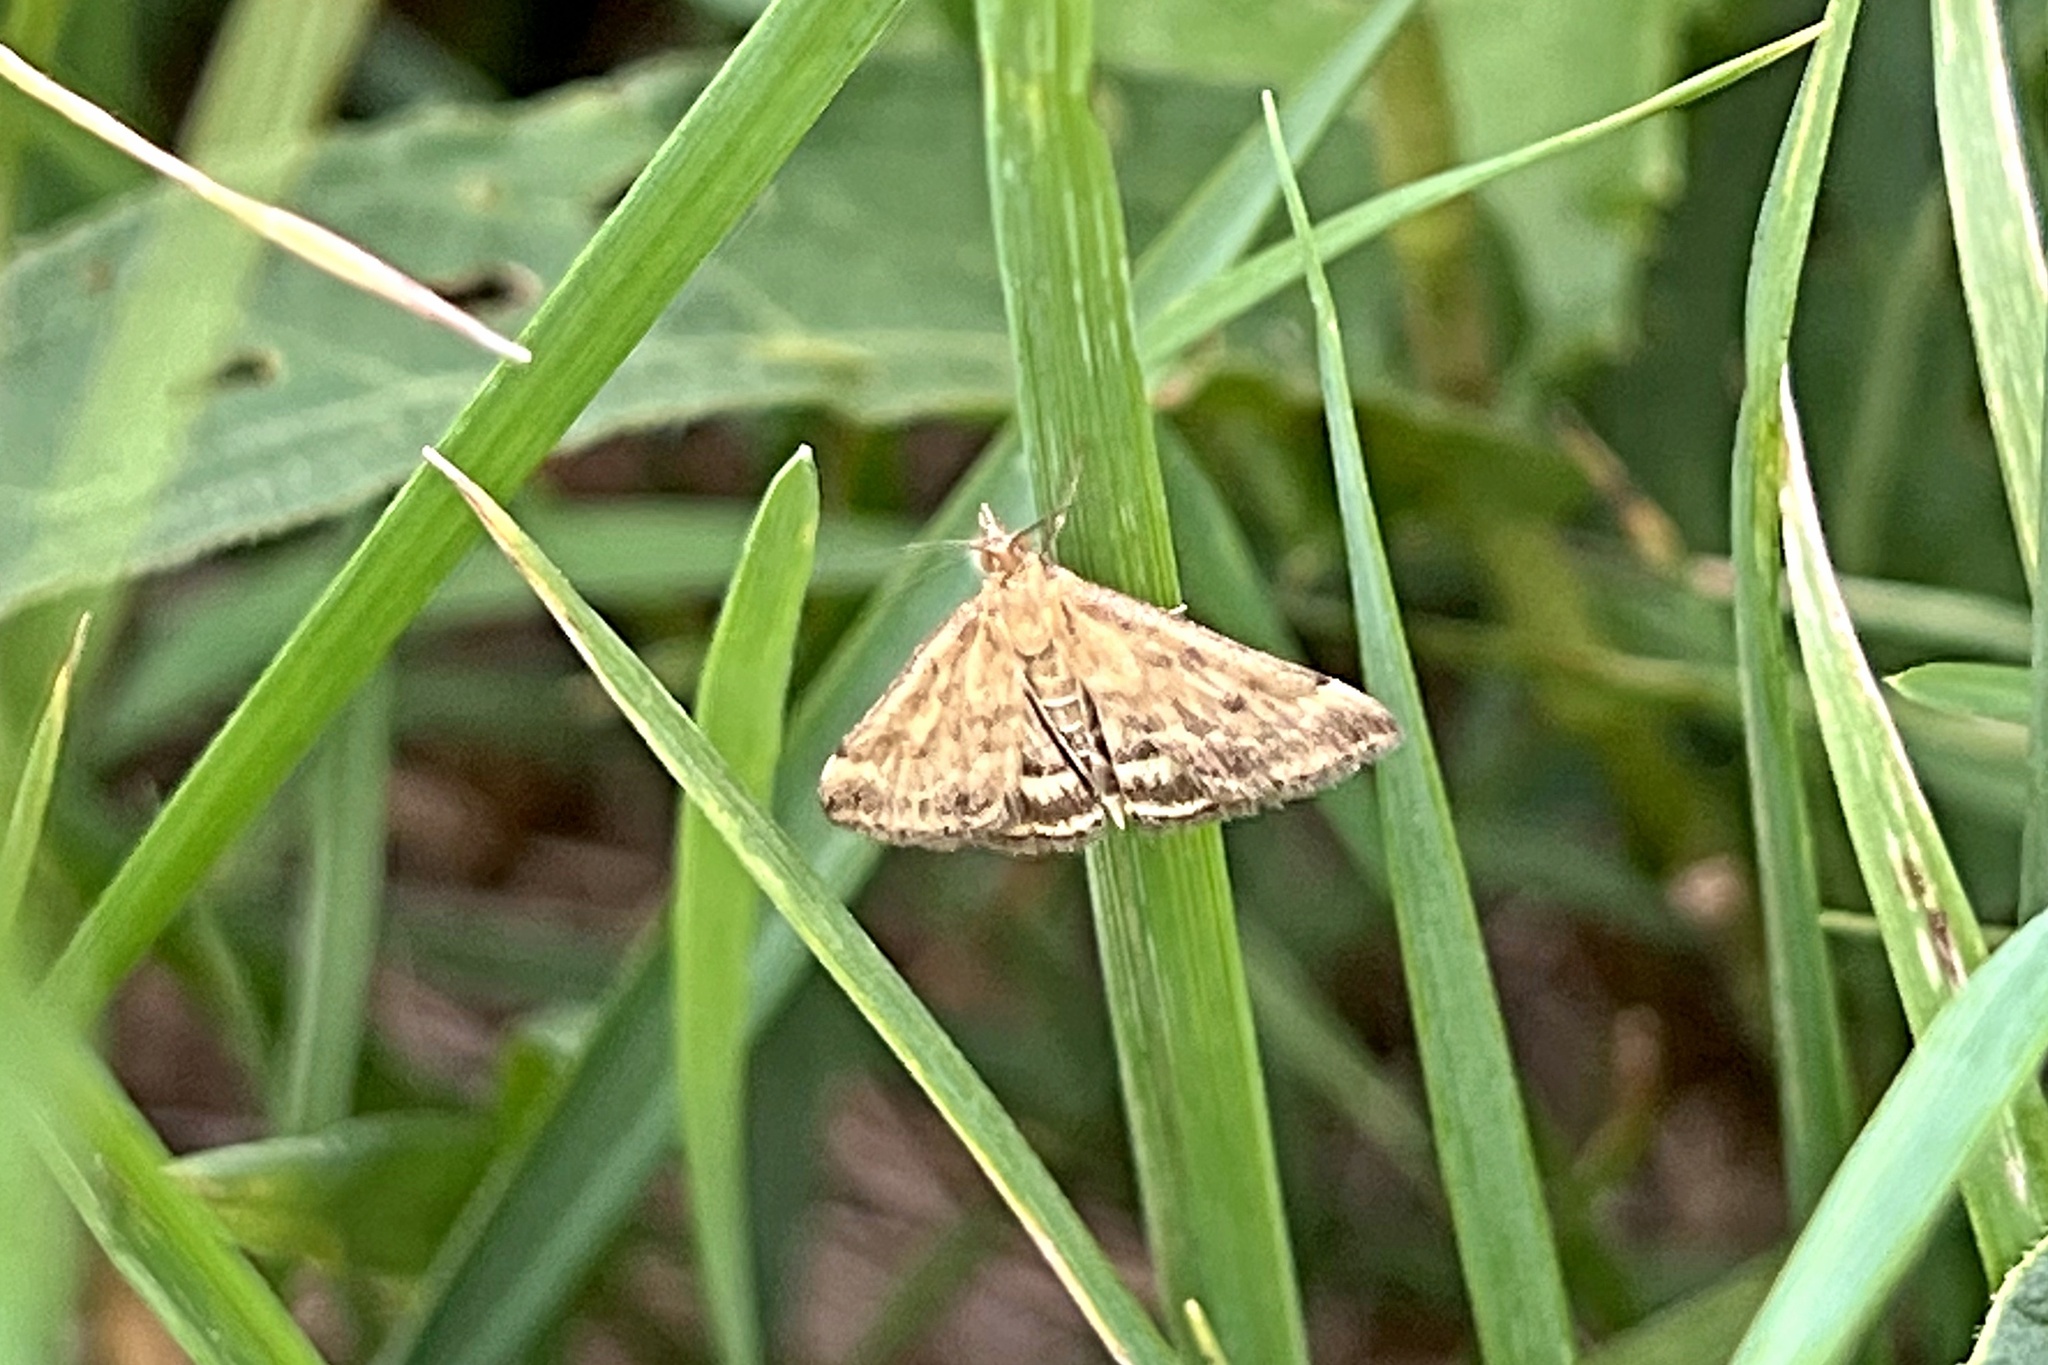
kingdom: Animalia
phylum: Arthropoda
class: Insecta
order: Lepidoptera
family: Crambidae
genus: Pyrausta
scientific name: Pyrausta despicata
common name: Straw-barred pearl
